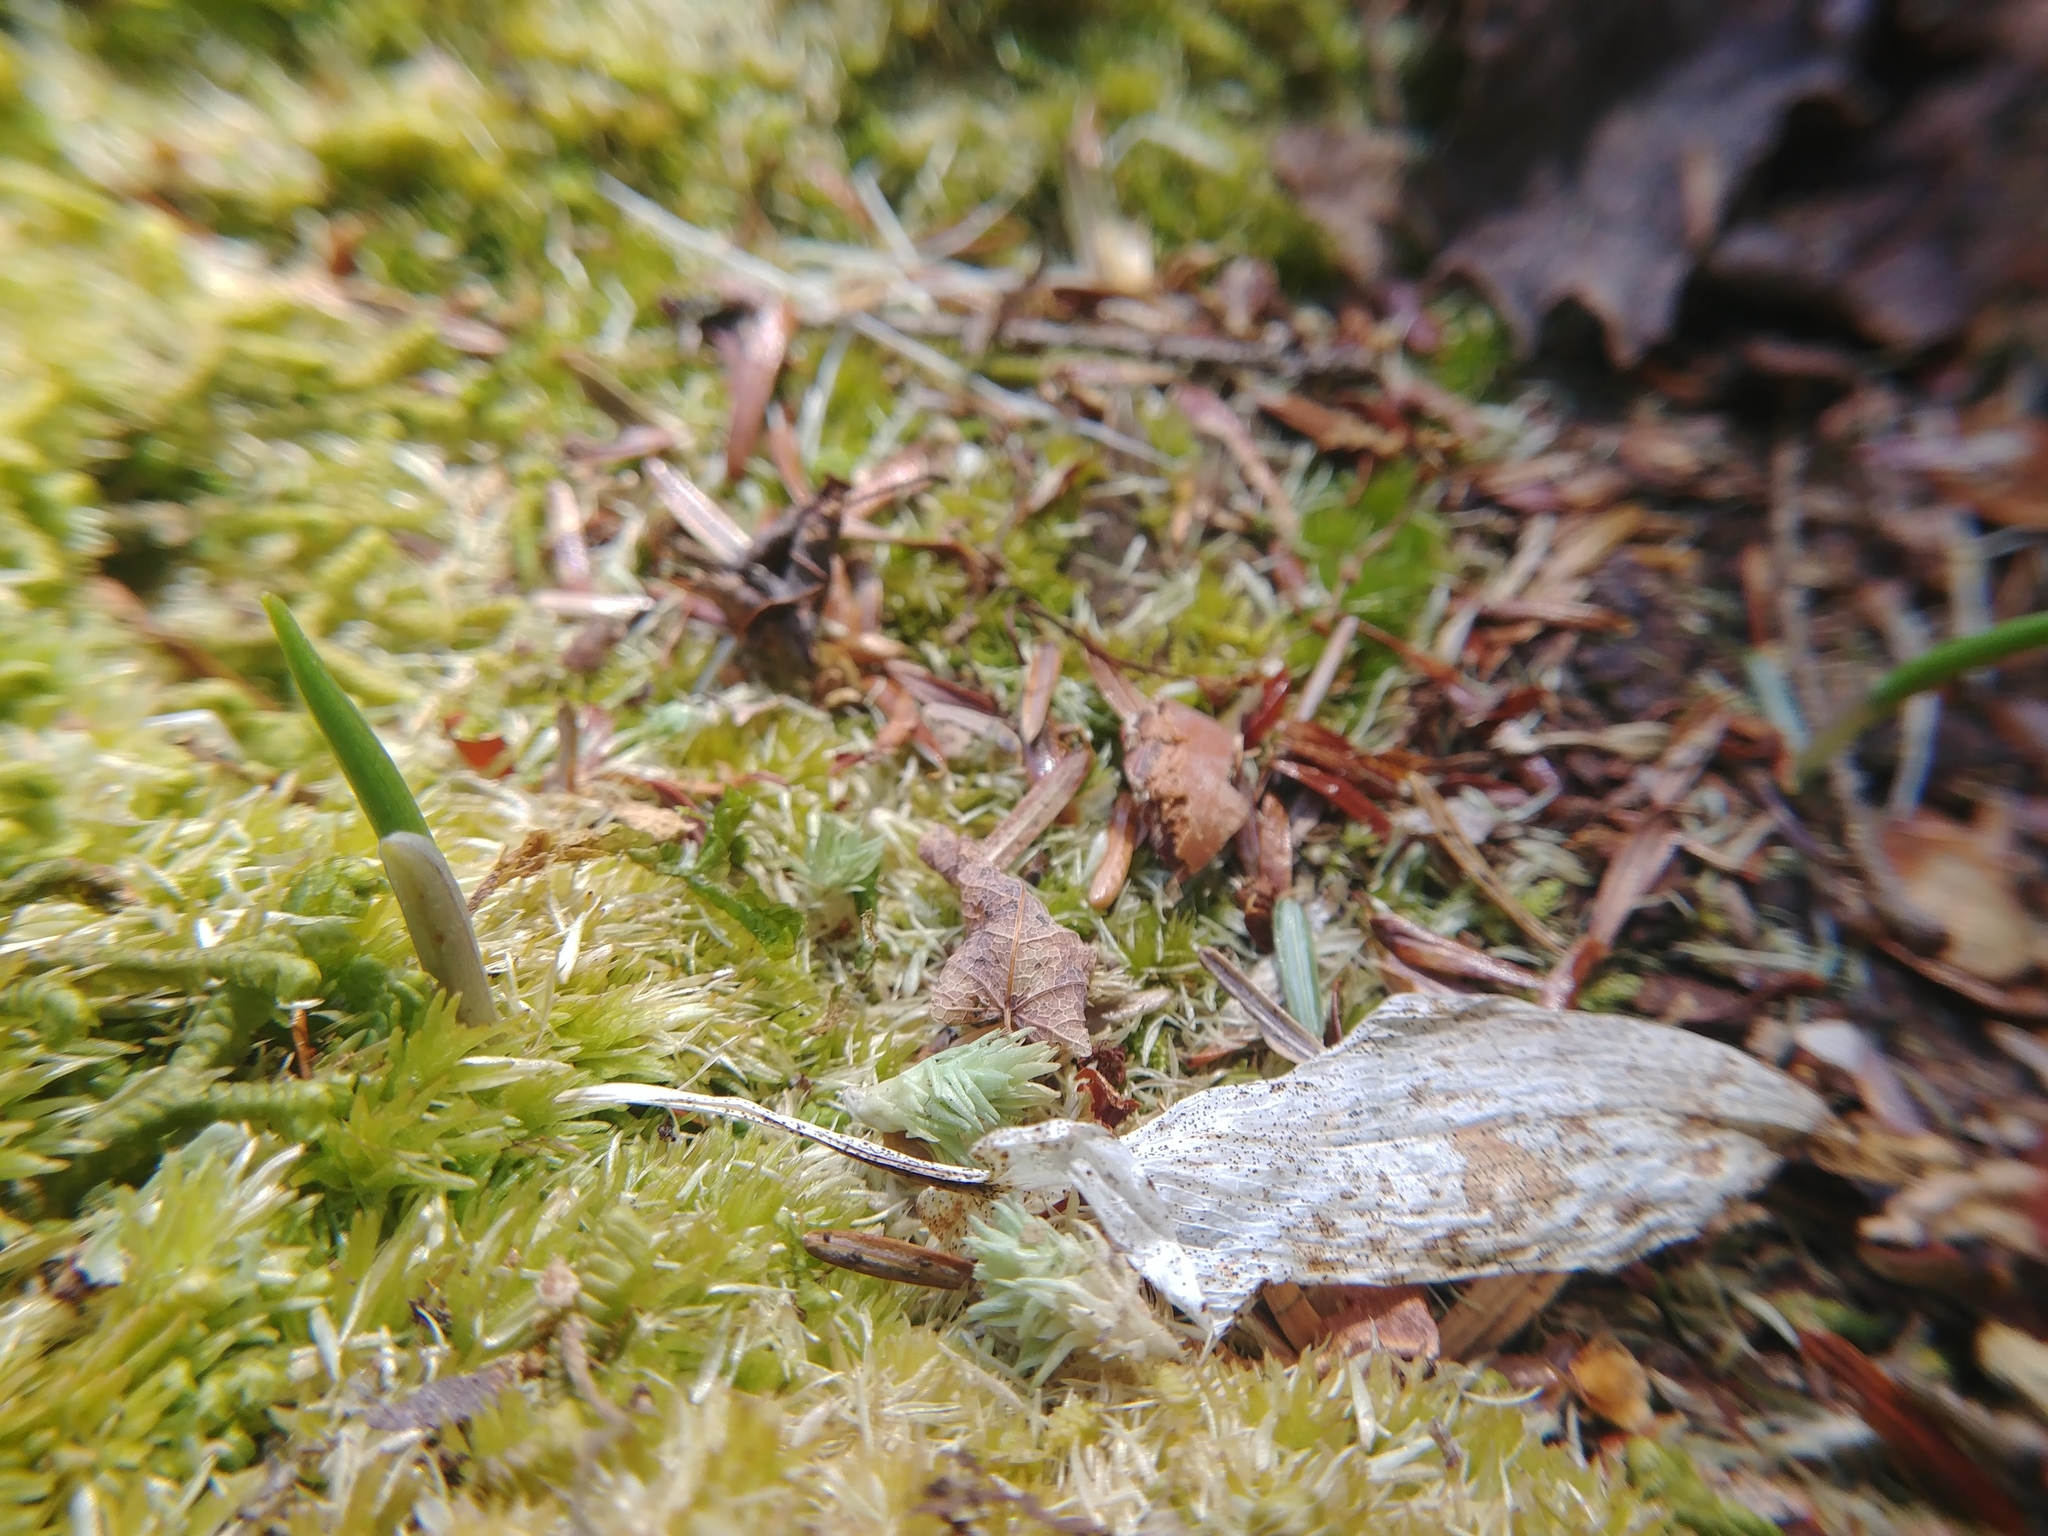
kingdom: Plantae
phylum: Tracheophyta
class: Liliopsida
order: Asparagales
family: Asparagaceae
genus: Maianthemum
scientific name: Maianthemum canadense
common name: False lily-of-the-valley
